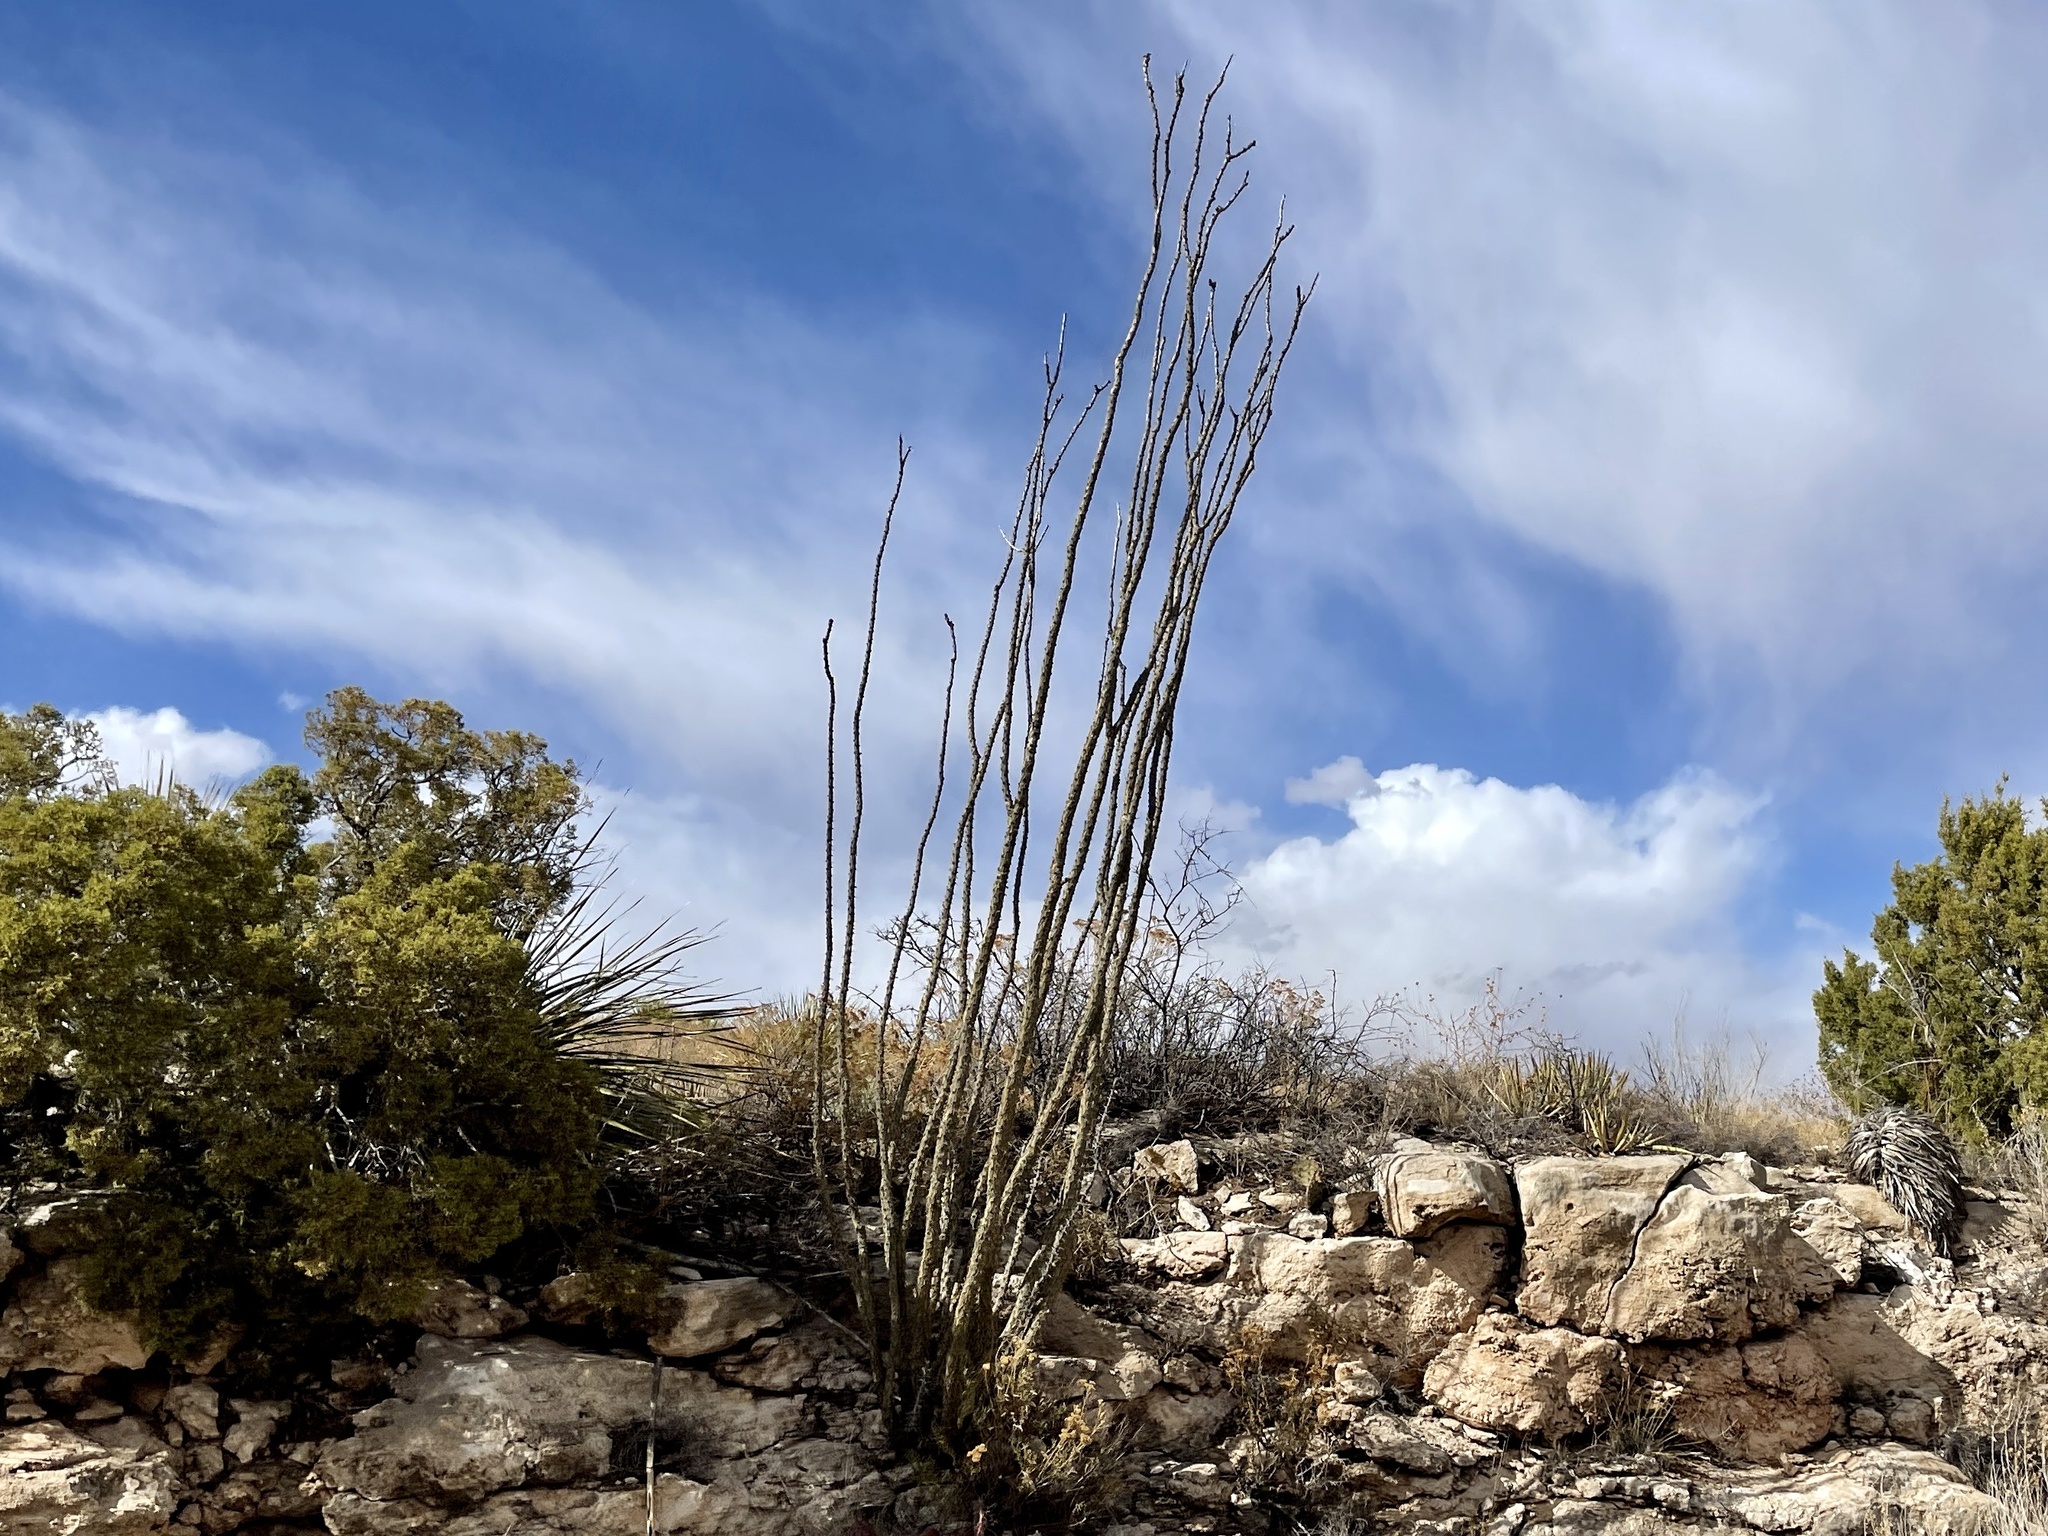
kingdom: Plantae
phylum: Tracheophyta
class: Magnoliopsida
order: Ericales
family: Fouquieriaceae
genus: Fouquieria
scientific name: Fouquieria splendens
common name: Vine-cactus
